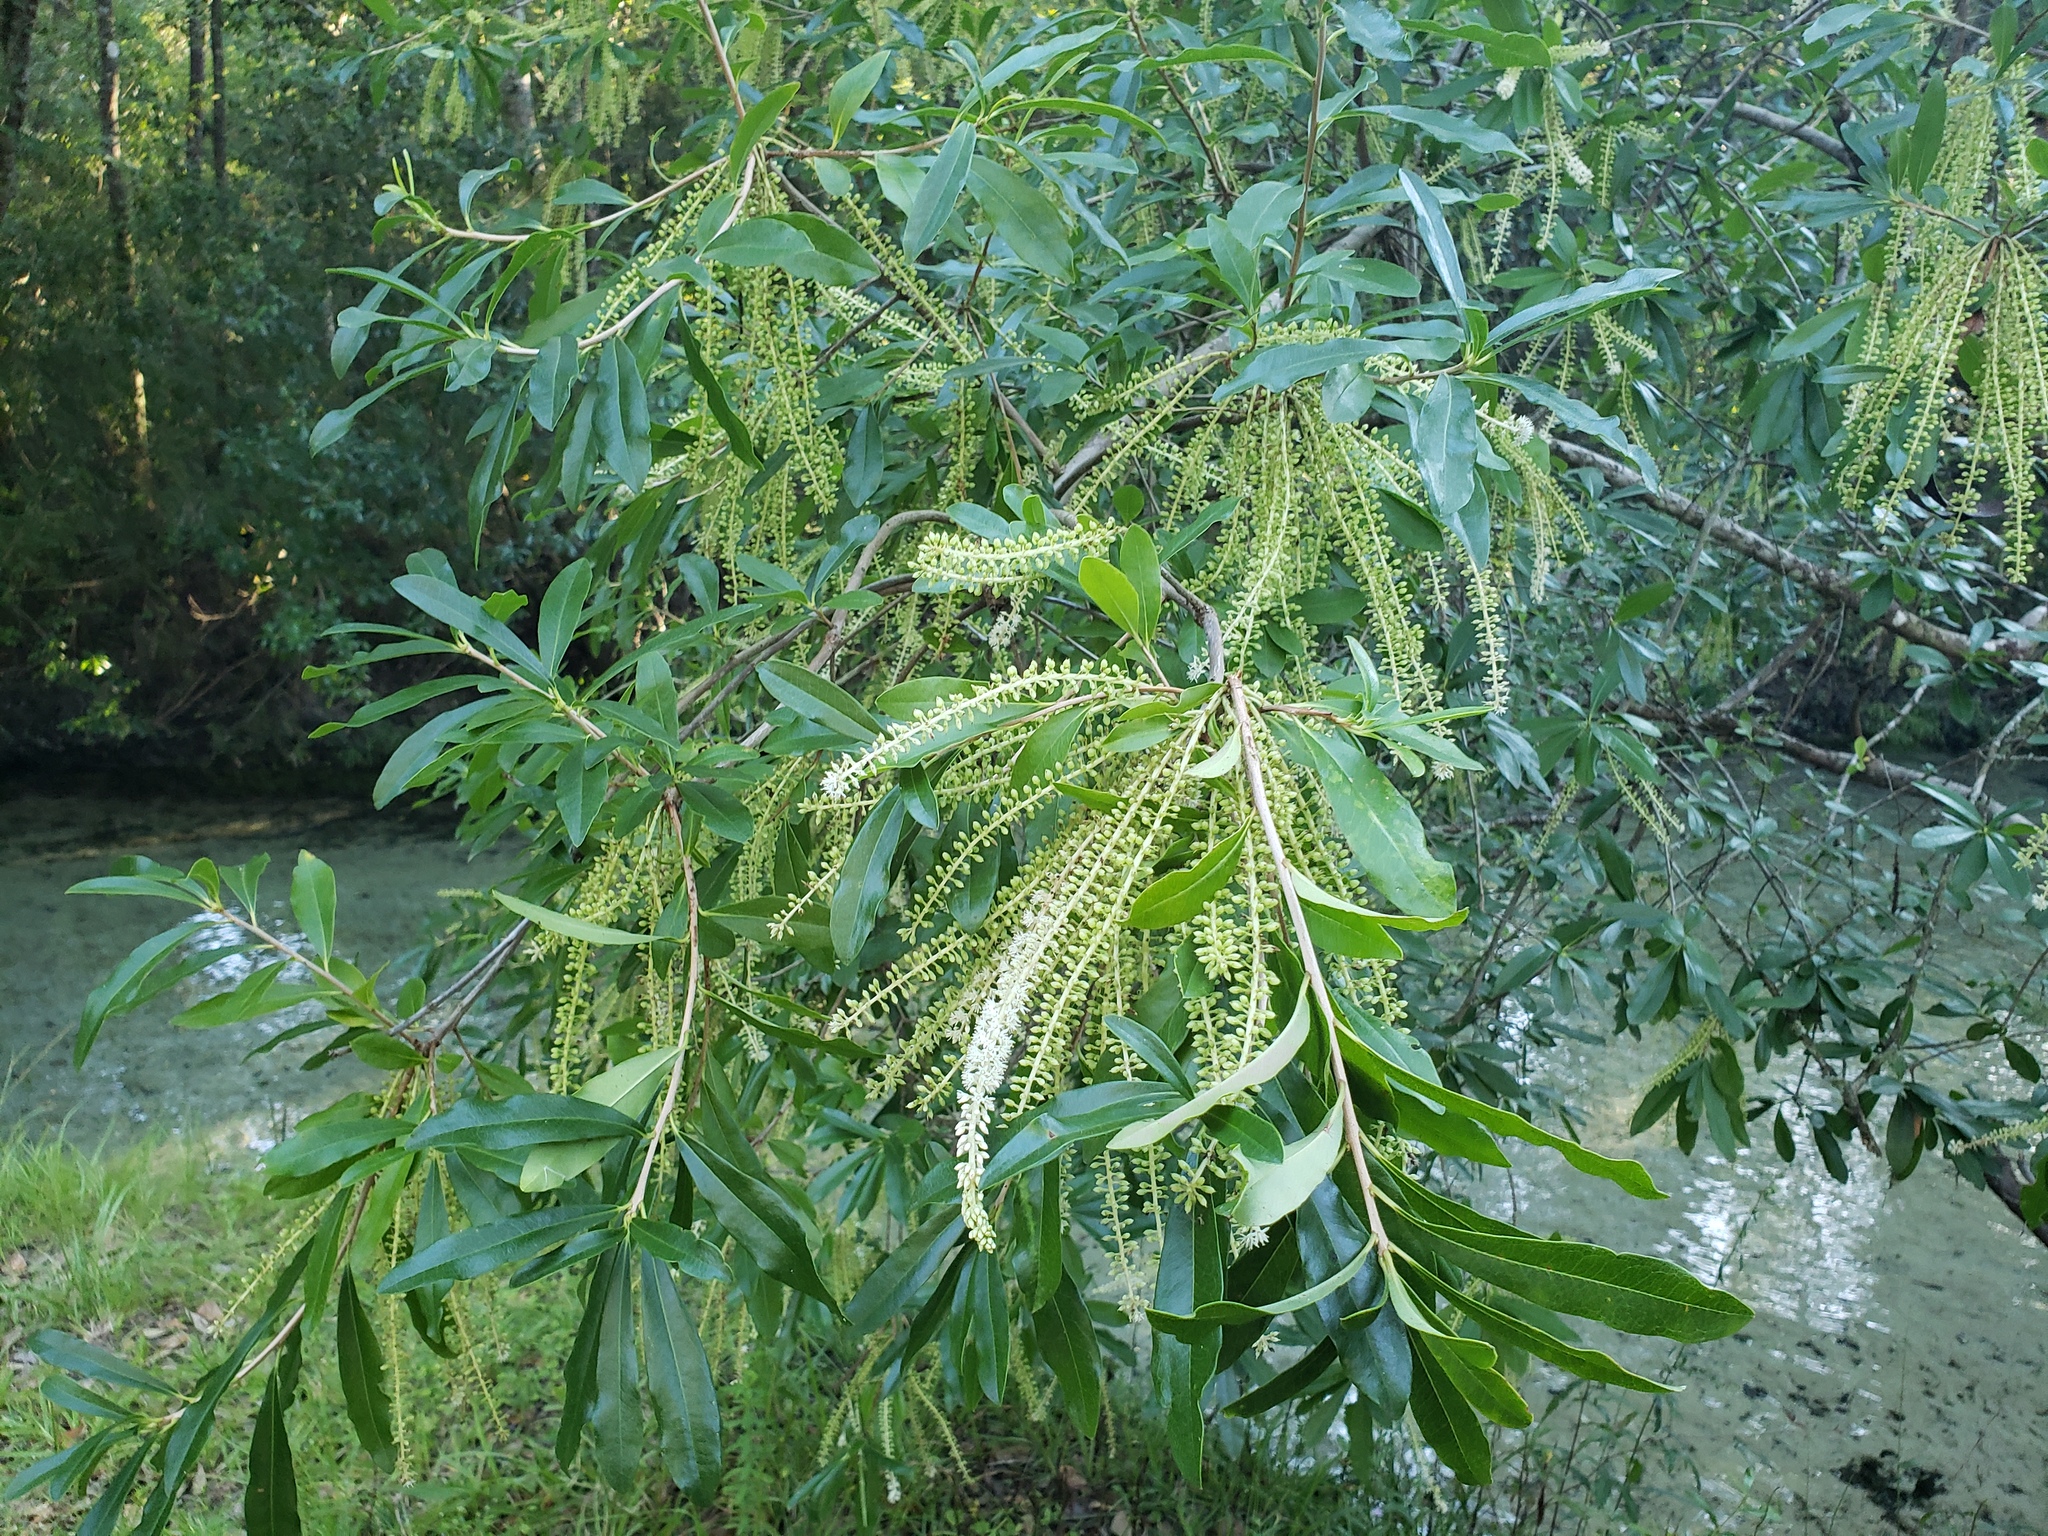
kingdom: Plantae
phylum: Tracheophyta
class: Magnoliopsida
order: Ericales
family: Cyrillaceae
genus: Cyrilla
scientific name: Cyrilla racemiflora
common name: Black titi
